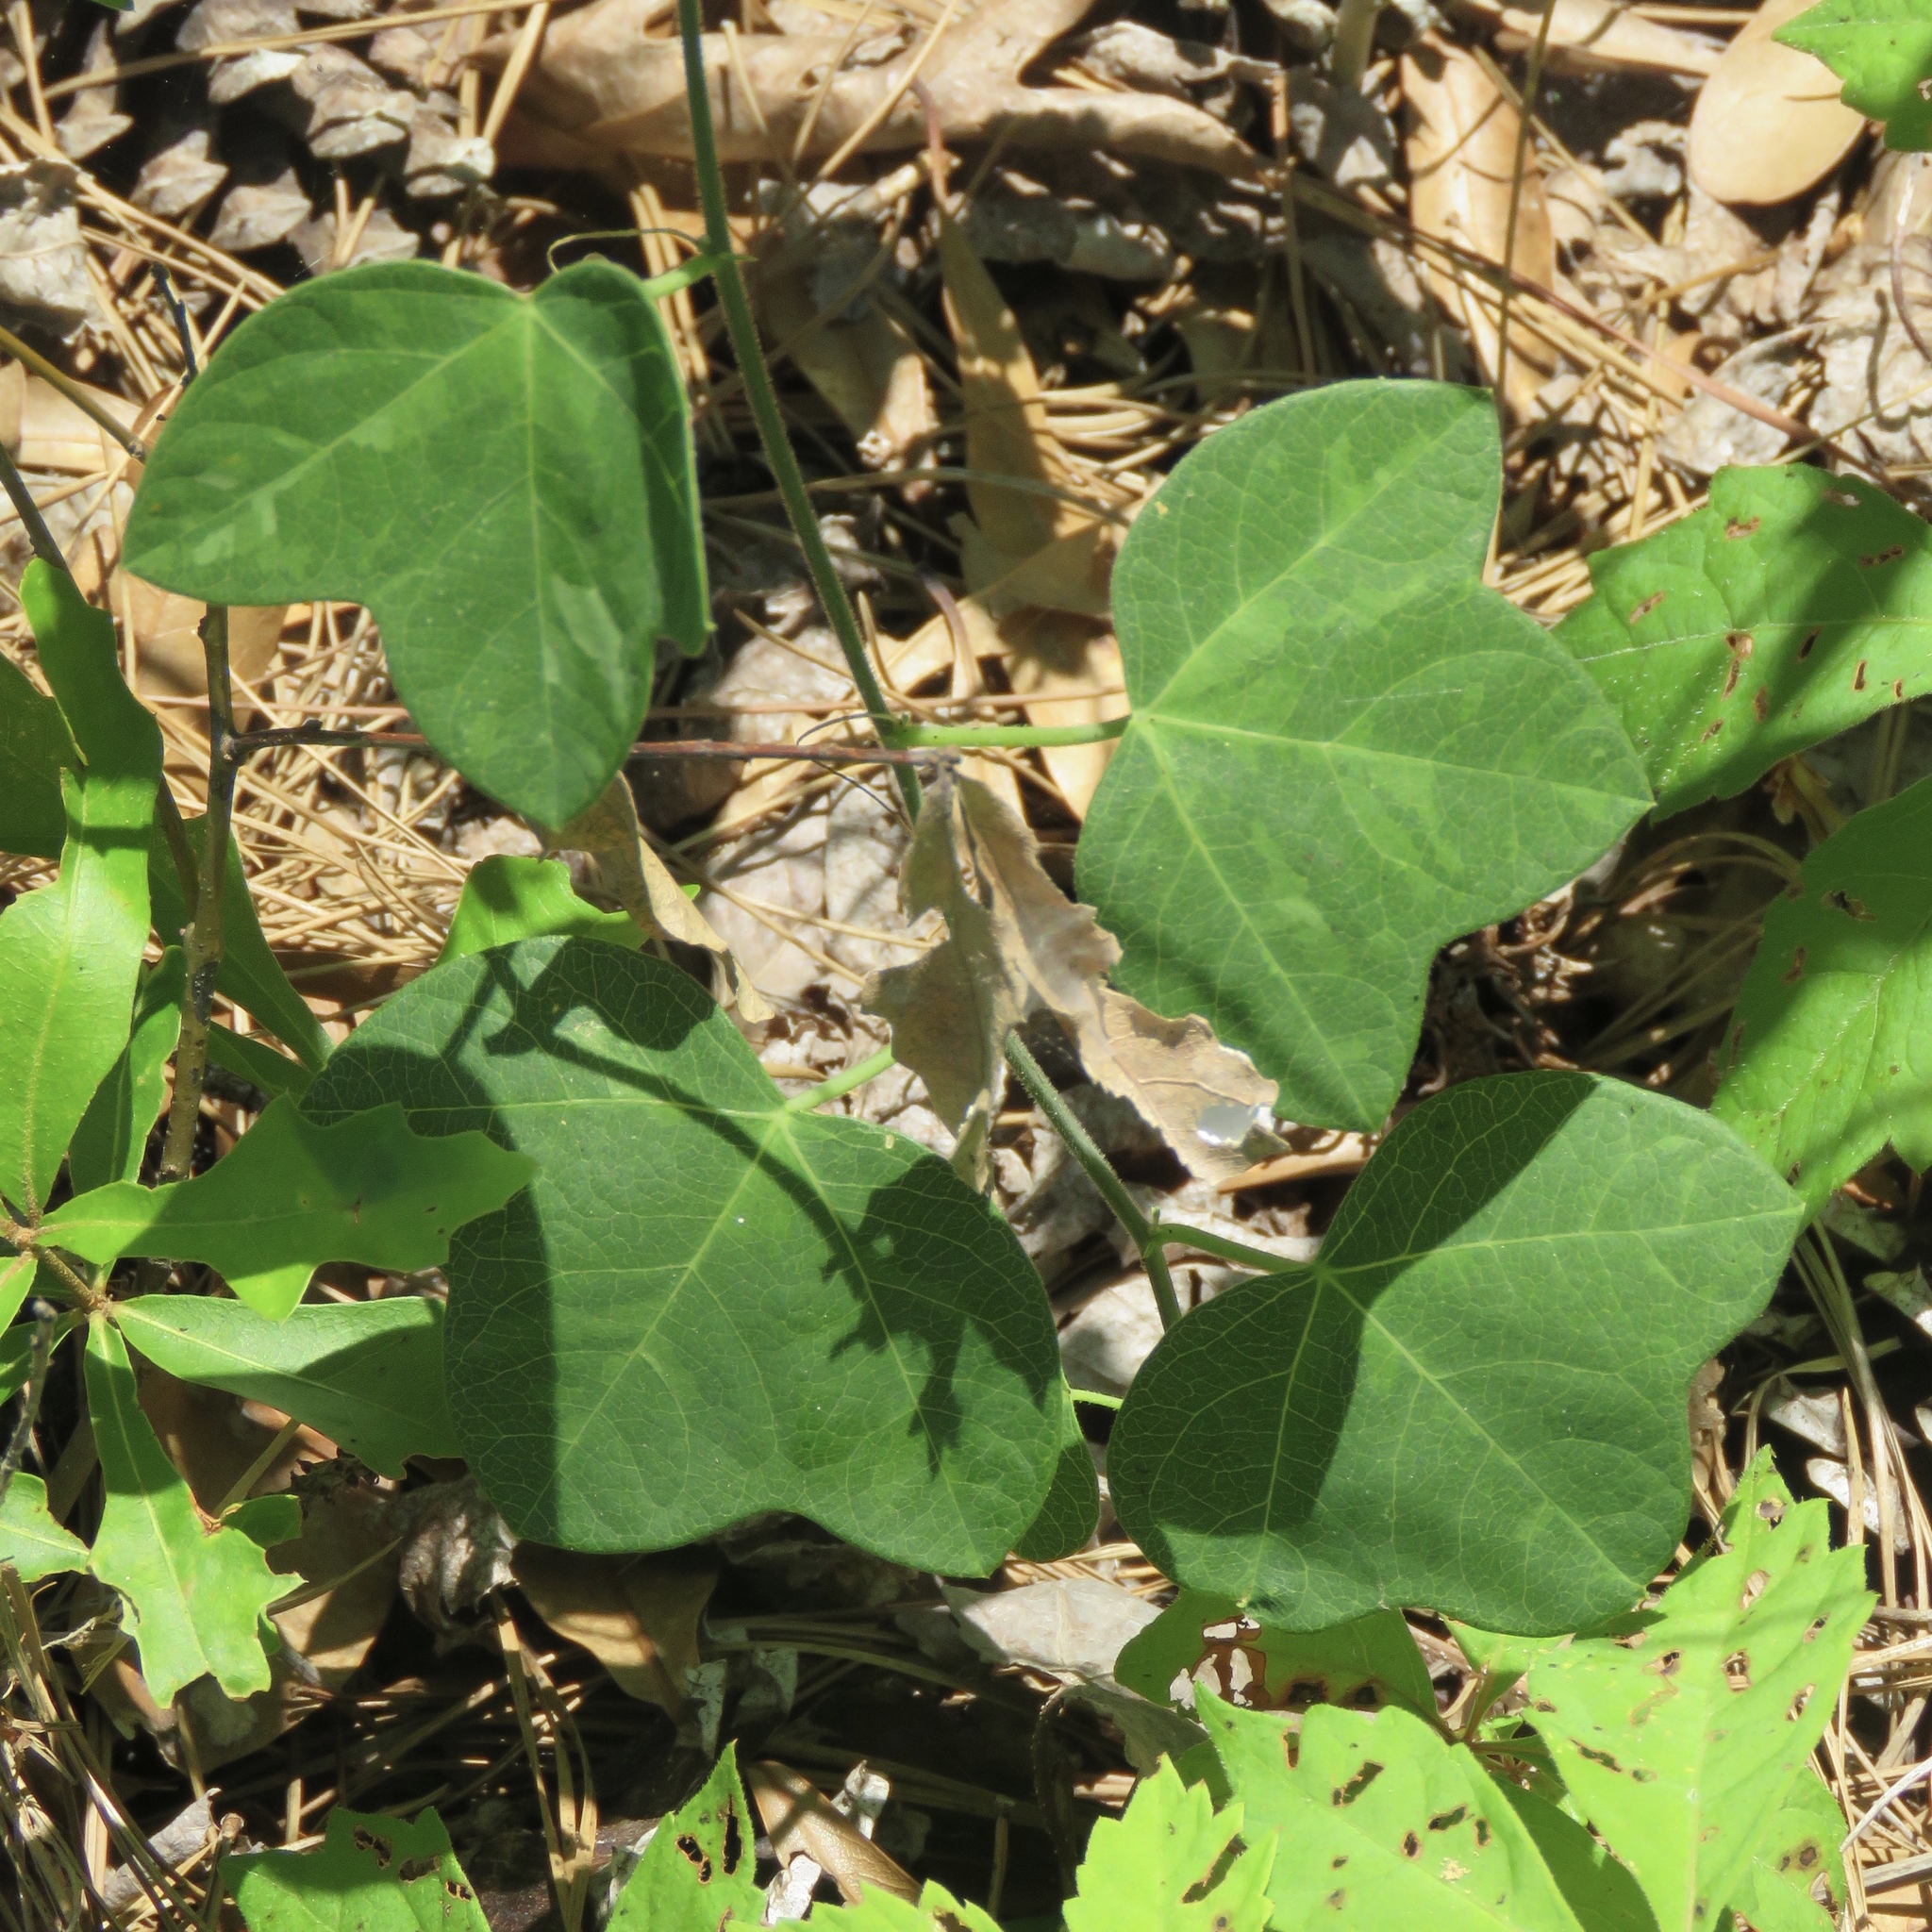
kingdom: Plantae
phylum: Tracheophyta
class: Magnoliopsida
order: Malpighiales
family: Passifloraceae
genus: Passiflora
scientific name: Passiflora lutea
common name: Yellow passionflower
